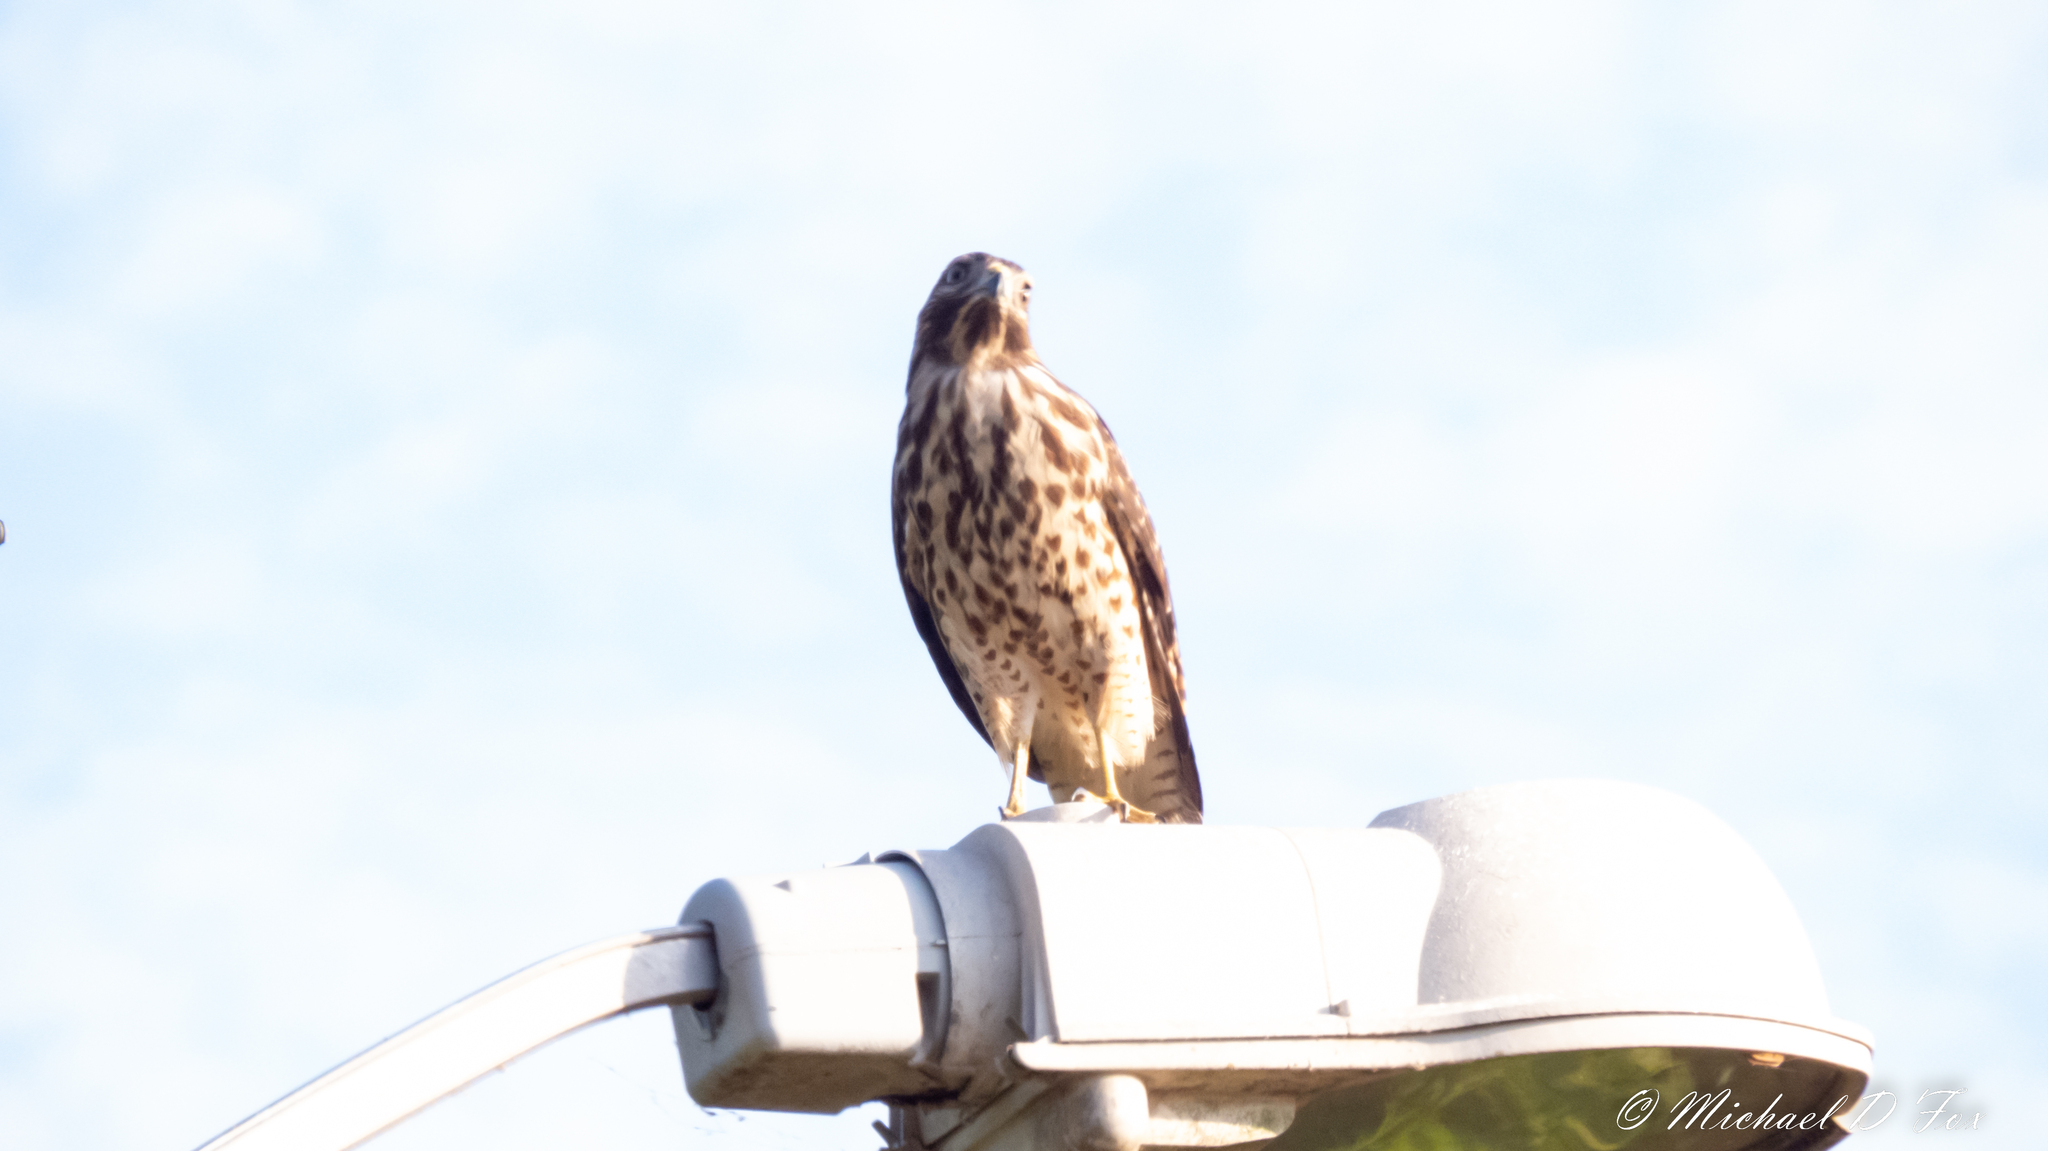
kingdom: Animalia
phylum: Chordata
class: Aves
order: Accipitriformes
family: Accipitridae
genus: Buteo
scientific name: Buteo lineatus
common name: Red-shouldered hawk
